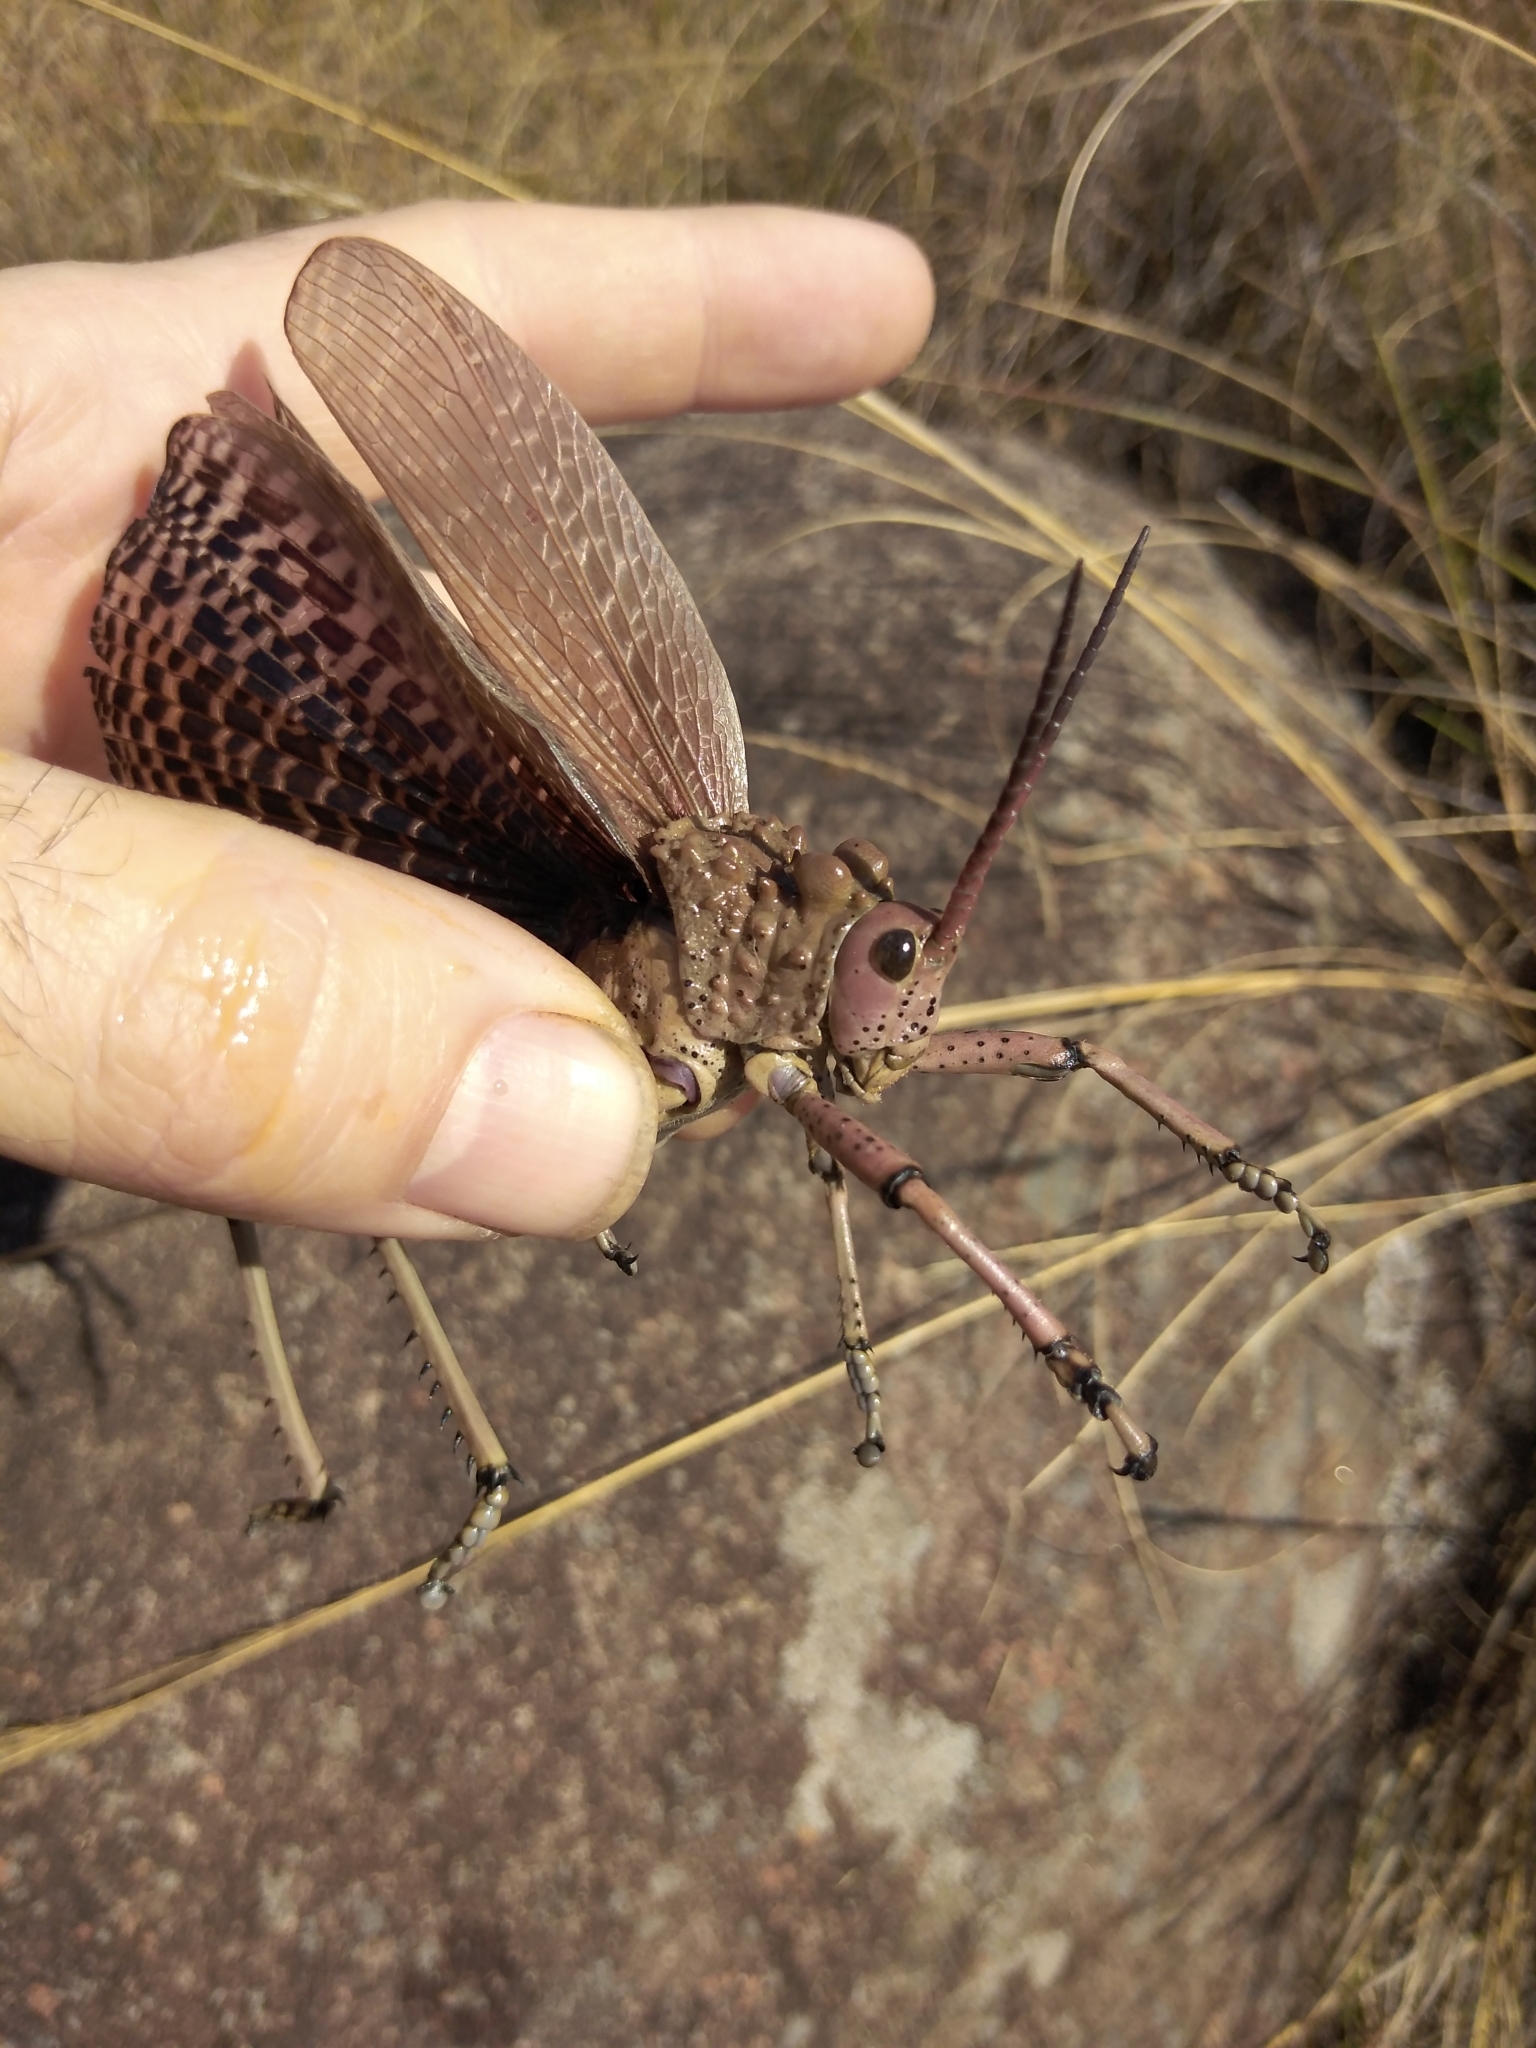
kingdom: Animalia
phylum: Arthropoda
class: Insecta
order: Orthoptera
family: Pyrgomorphidae
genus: Phymateus
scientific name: Phymateus leprosus
